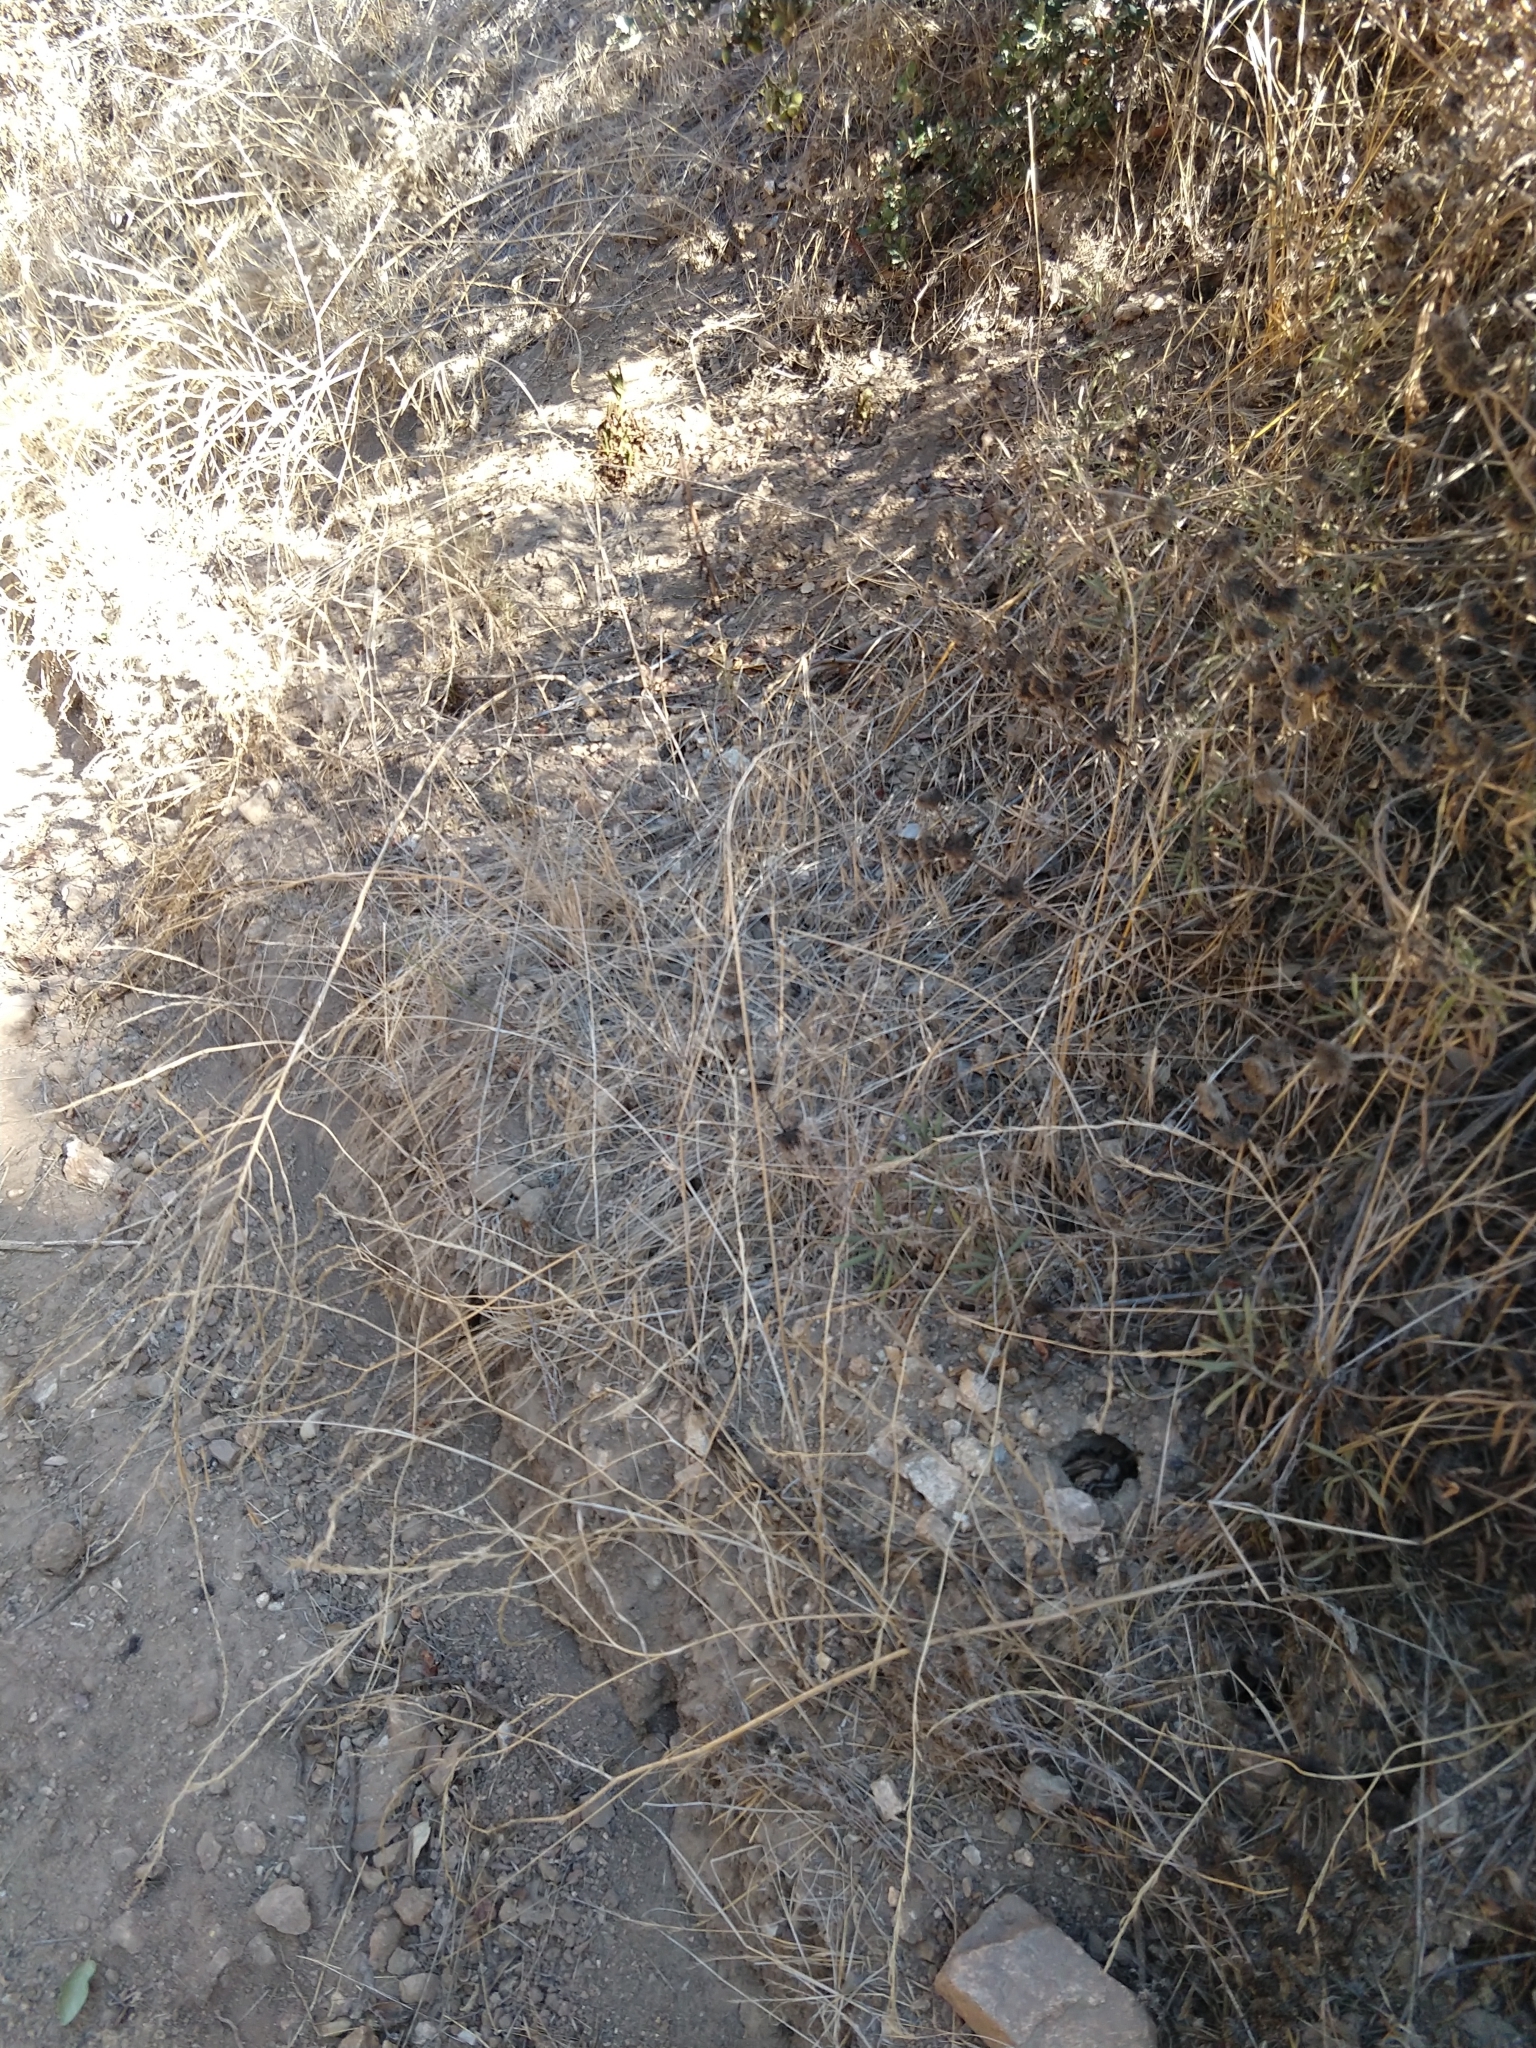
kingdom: Plantae
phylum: Tracheophyta
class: Liliopsida
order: Poales
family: Poaceae
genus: Bromus
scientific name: Bromus diandrus
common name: Ripgut brome
